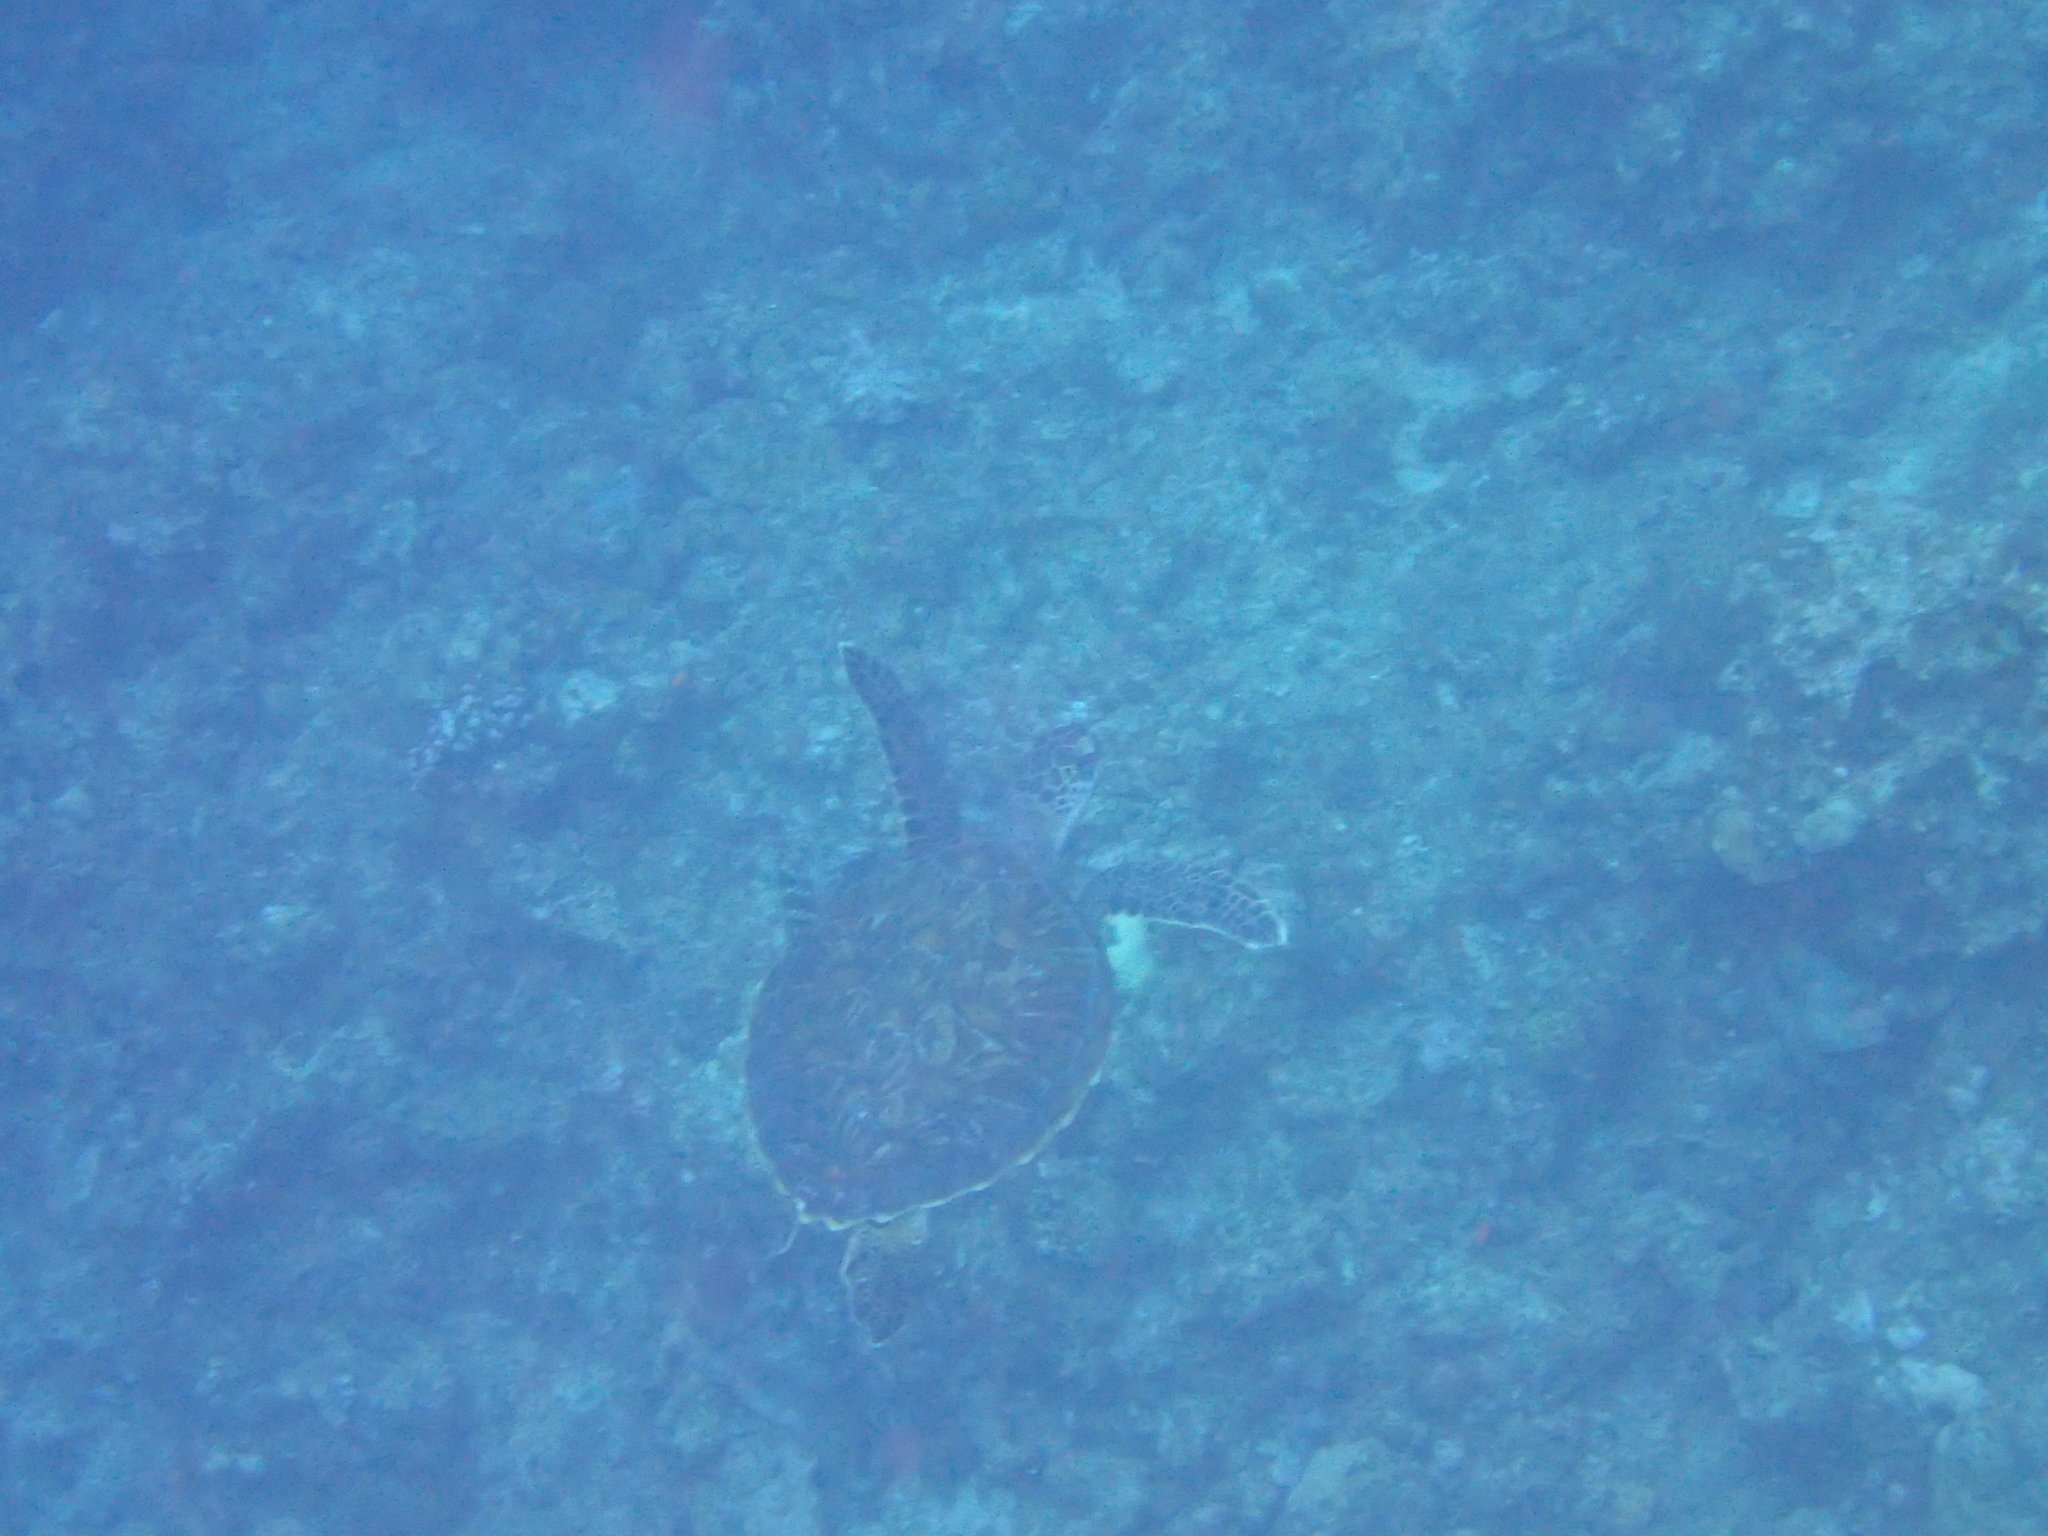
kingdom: Animalia
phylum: Chordata
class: Testudines
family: Cheloniidae
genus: Chelonia
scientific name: Chelonia mydas
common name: Green turtle
